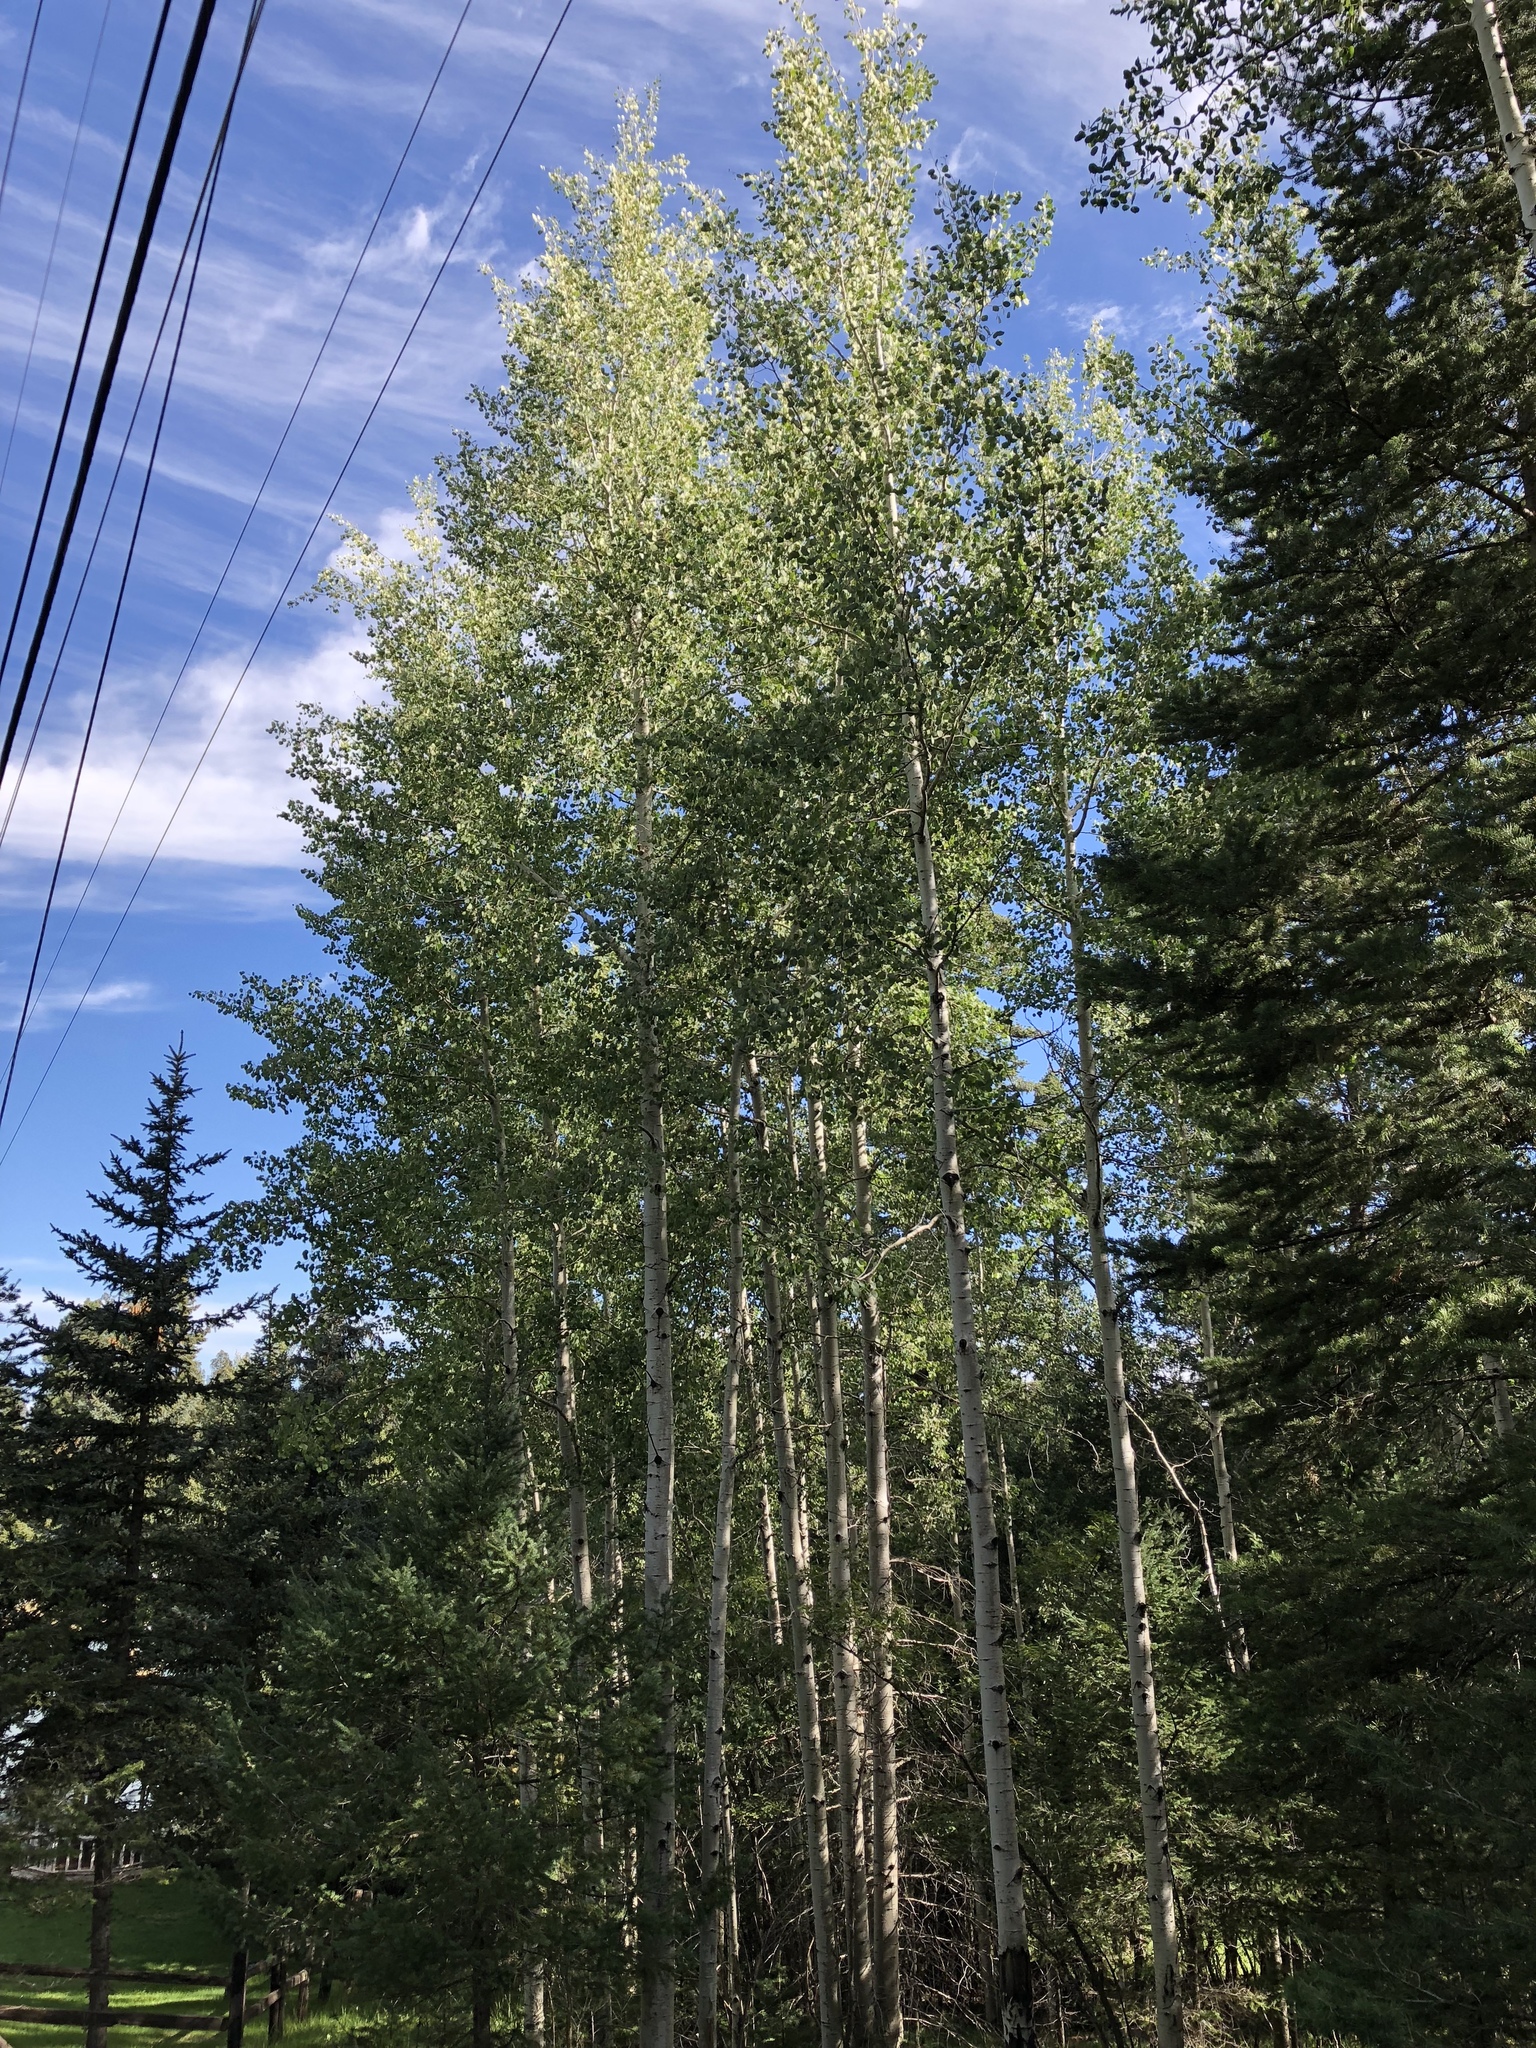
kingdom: Plantae
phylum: Tracheophyta
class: Magnoliopsida
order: Malpighiales
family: Salicaceae
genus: Populus
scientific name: Populus tremuloides
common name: Quaking aspen
